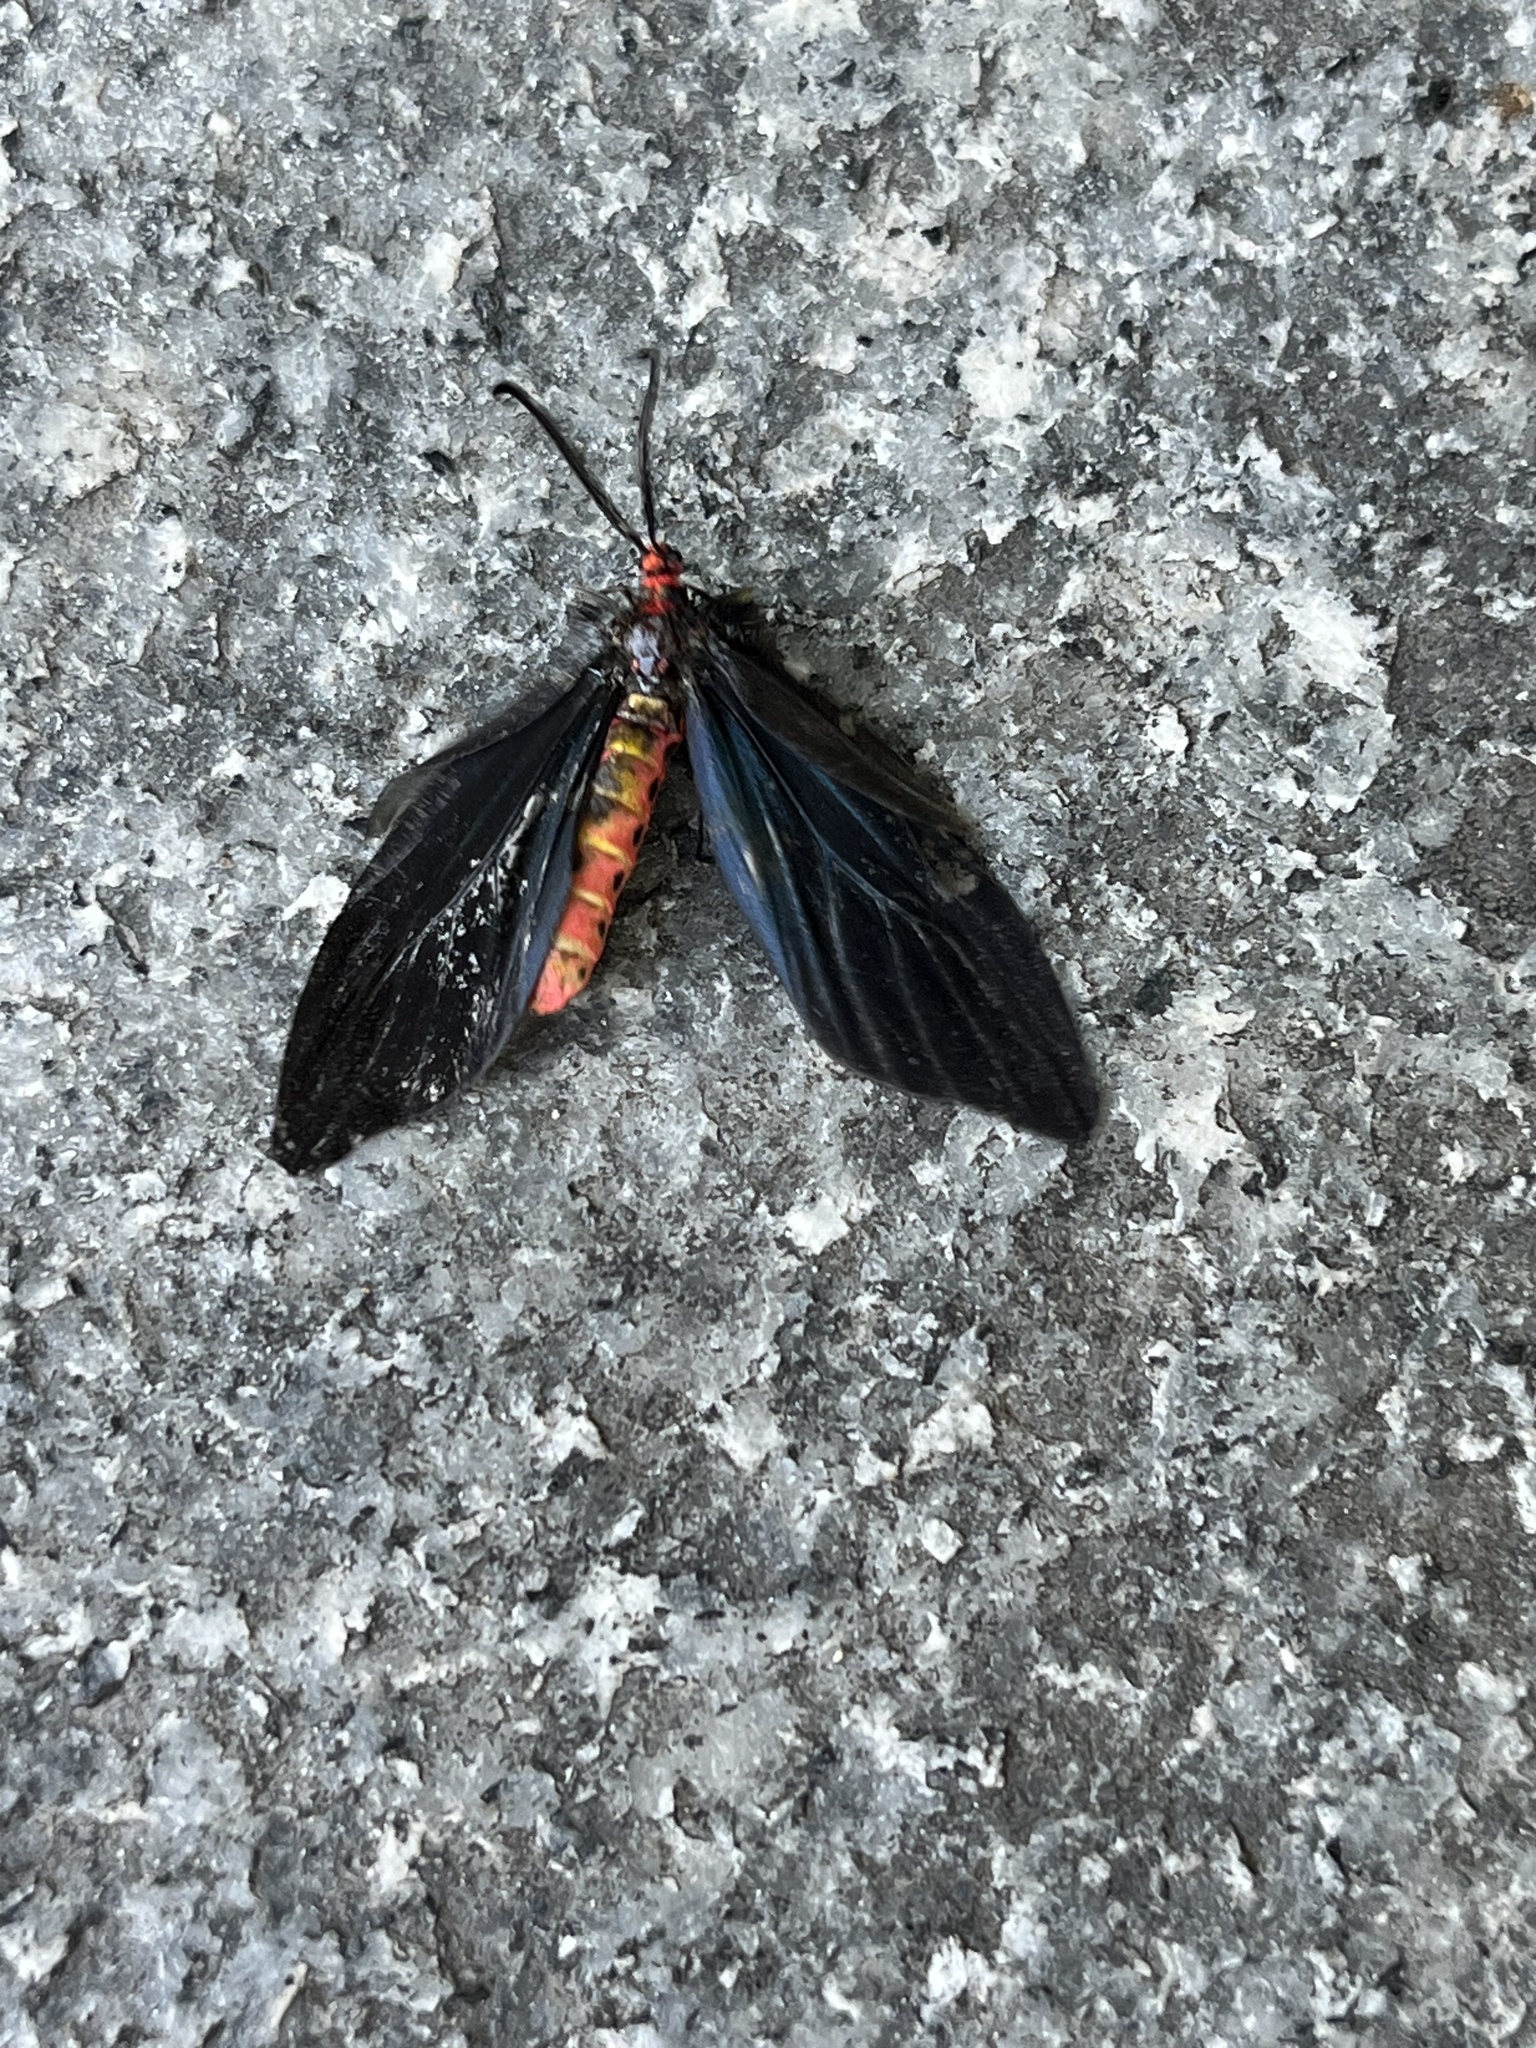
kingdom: Animalia
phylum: Arthropoda
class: Insecta
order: Lepidoptera
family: Zygaenidae
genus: Histia
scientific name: Histia flabellicornis
